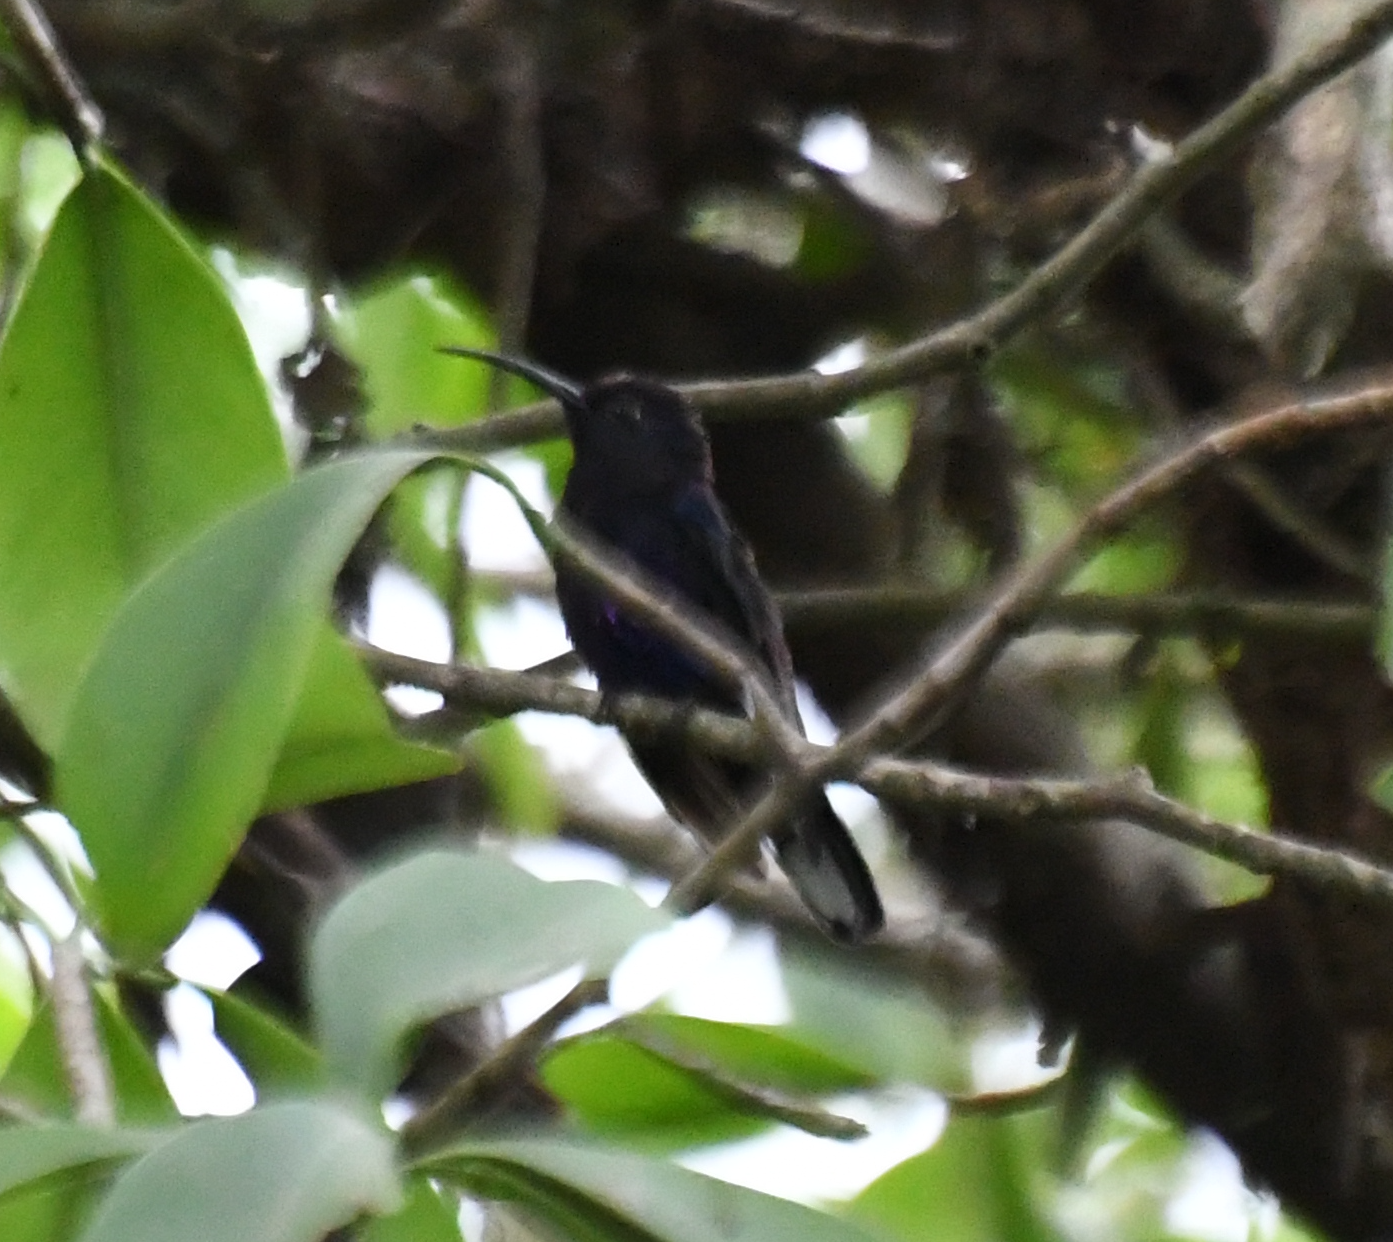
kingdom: Animalia
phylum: Chordata
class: Aves
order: Apodiformes
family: Trochilidae
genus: Campylopterus
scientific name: Campylopterus hemileucurus
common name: Violet sabrewing
